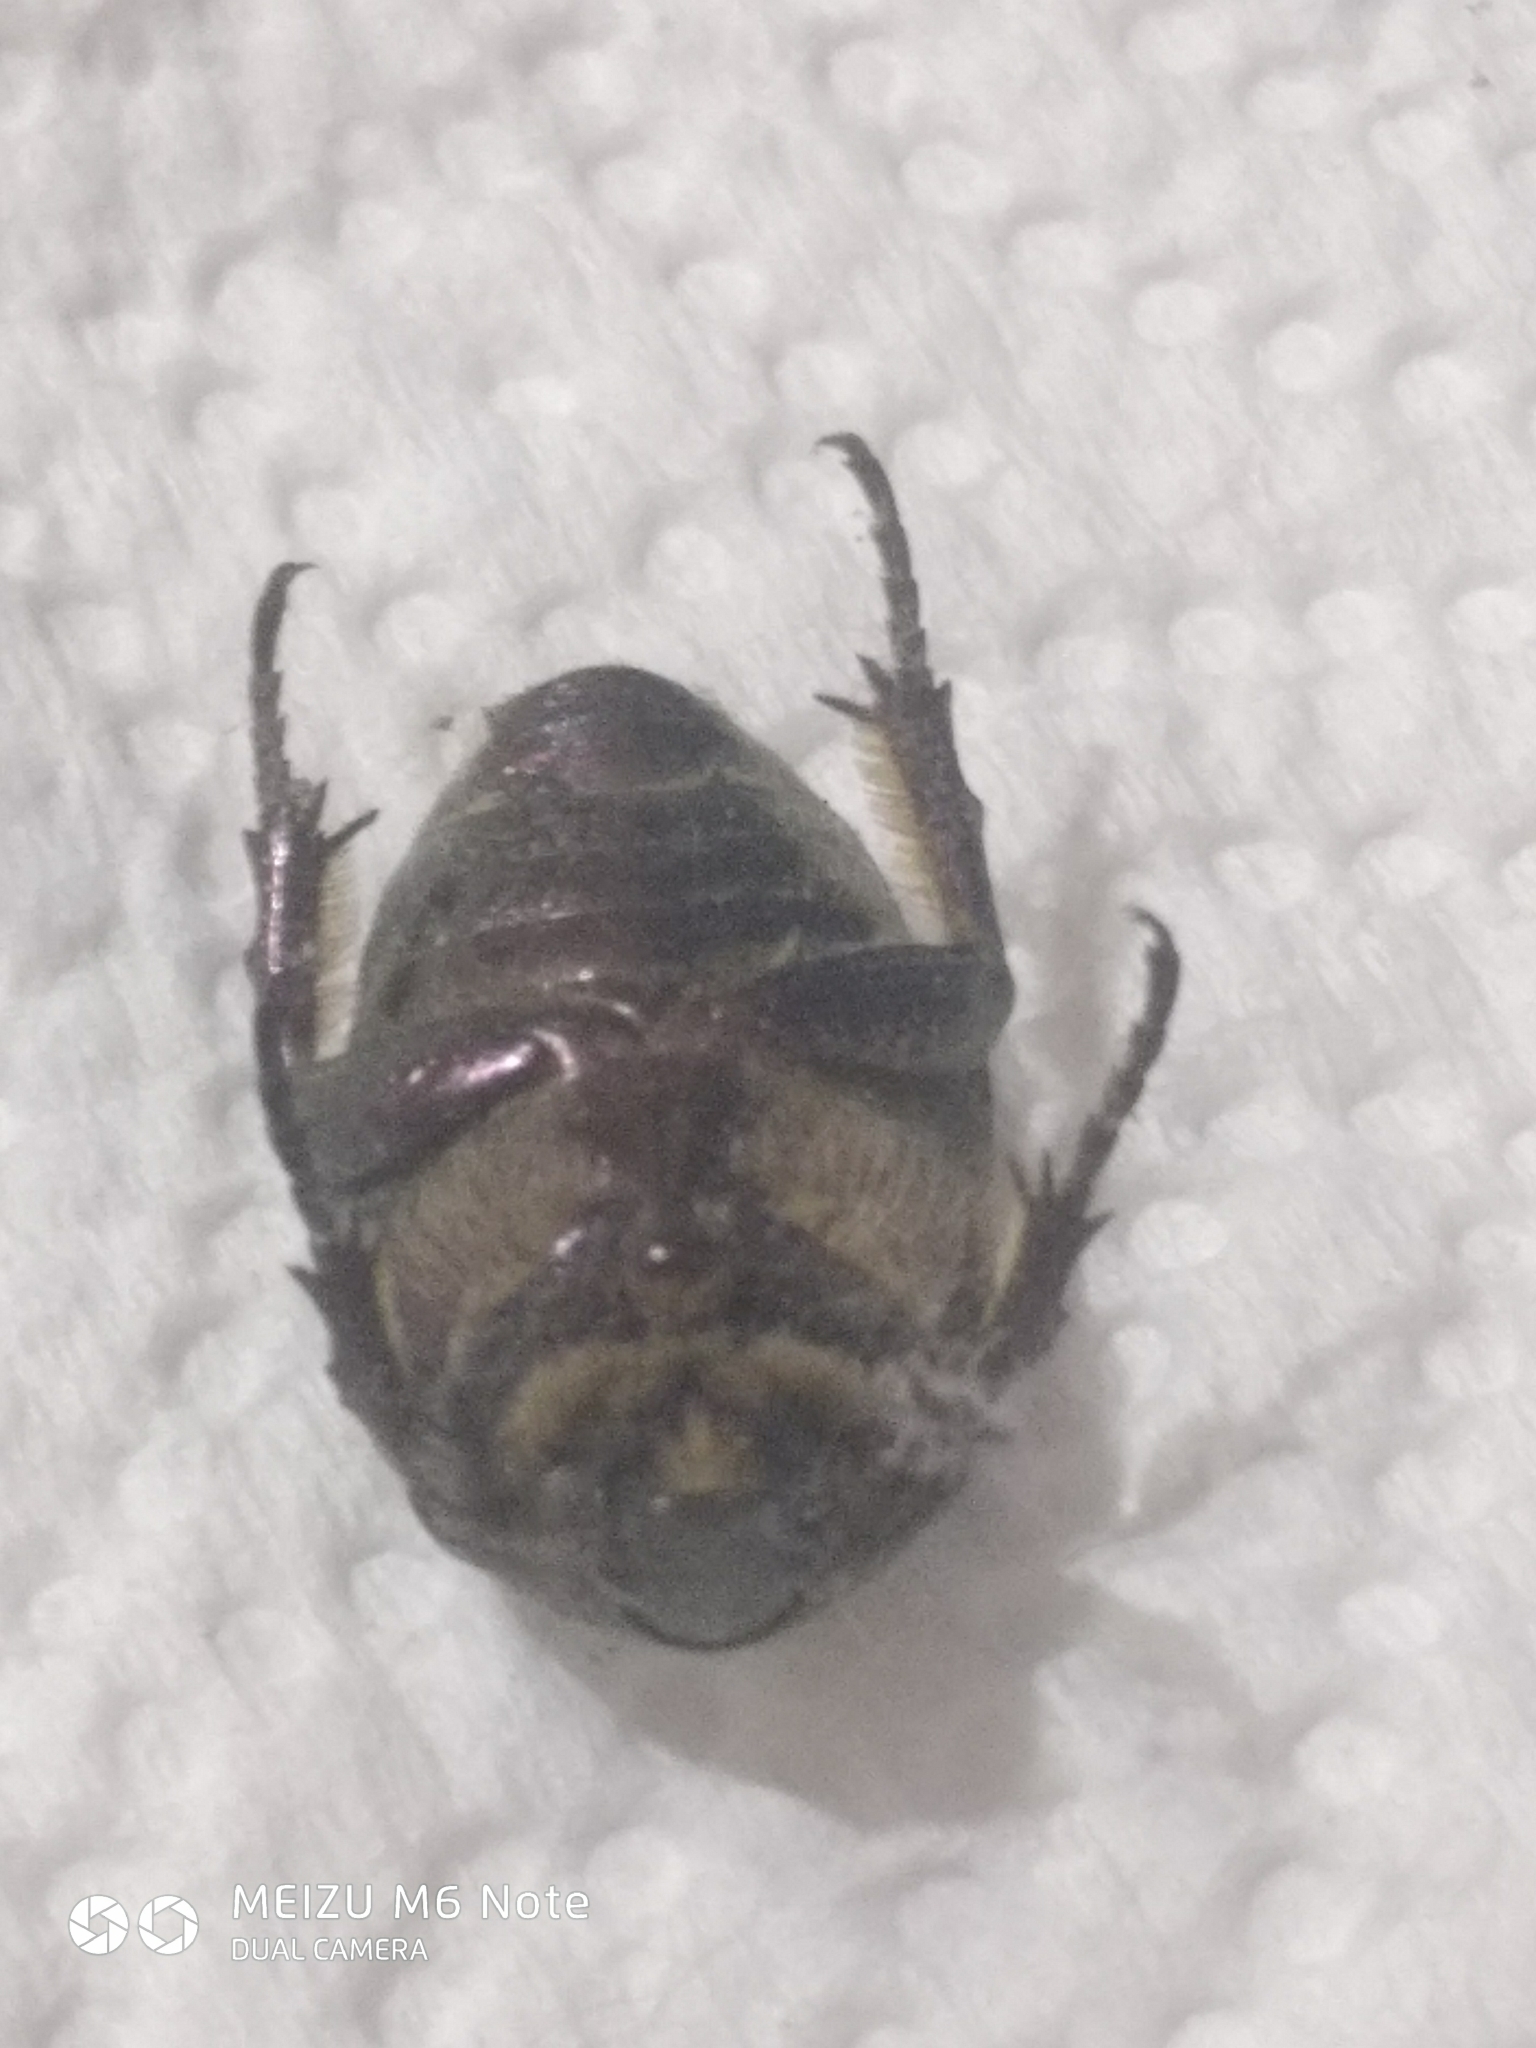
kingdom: Animalia
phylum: Arthropoda
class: Insecta
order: Coleoptera
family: Scarabaeidae
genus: Protaetia
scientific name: Protaetia cuprea
